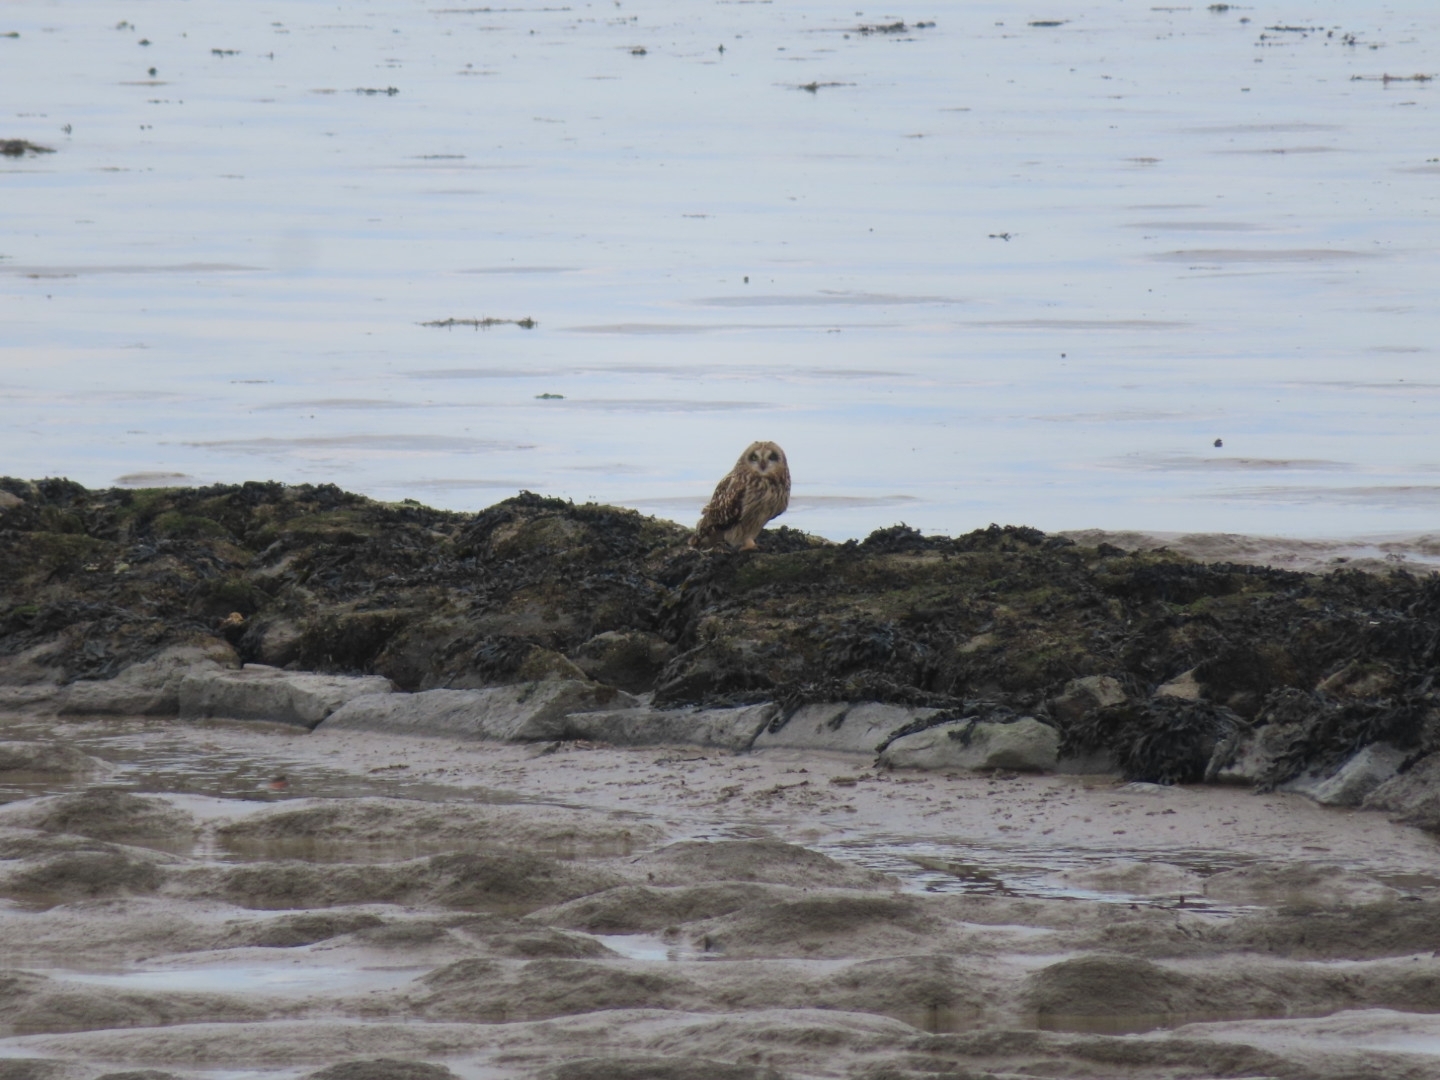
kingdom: Animalia
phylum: Chordata
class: Aves
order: Strigiformes
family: Strigidae
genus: Asio
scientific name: Asio flammeus
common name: Short-eared owl
